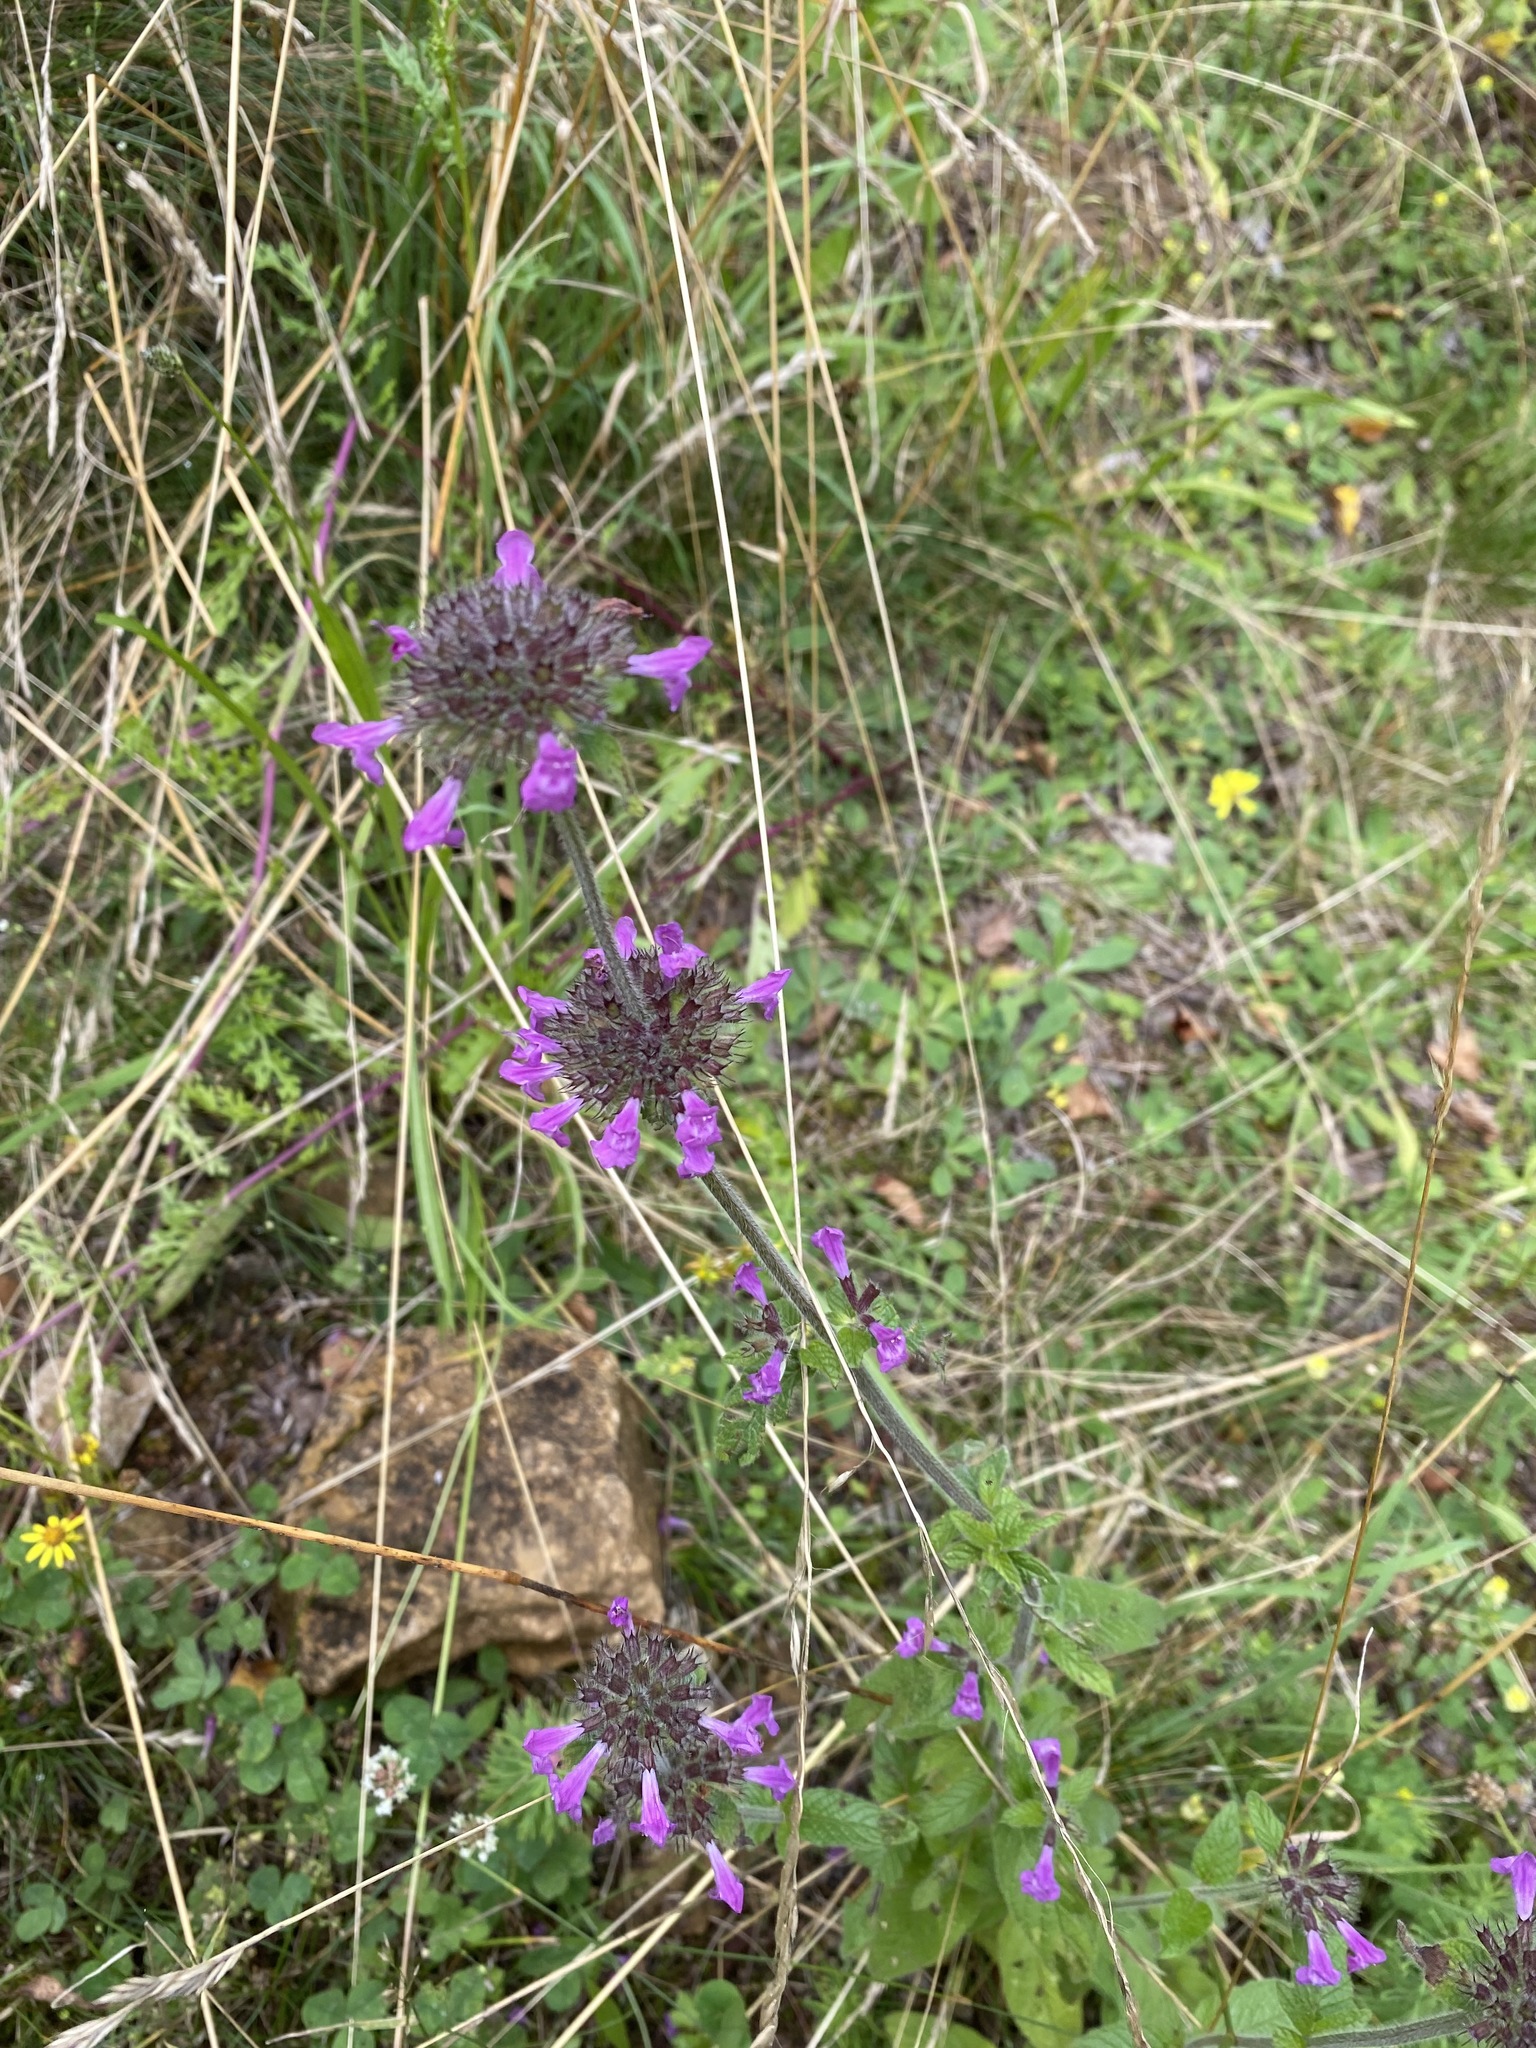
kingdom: Plantae
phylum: Tracheophyta
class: Magnoliopsida
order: Lamiales
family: Lamiaceae
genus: Clinopodium
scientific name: Clinopodium vulgare
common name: Wild basil
